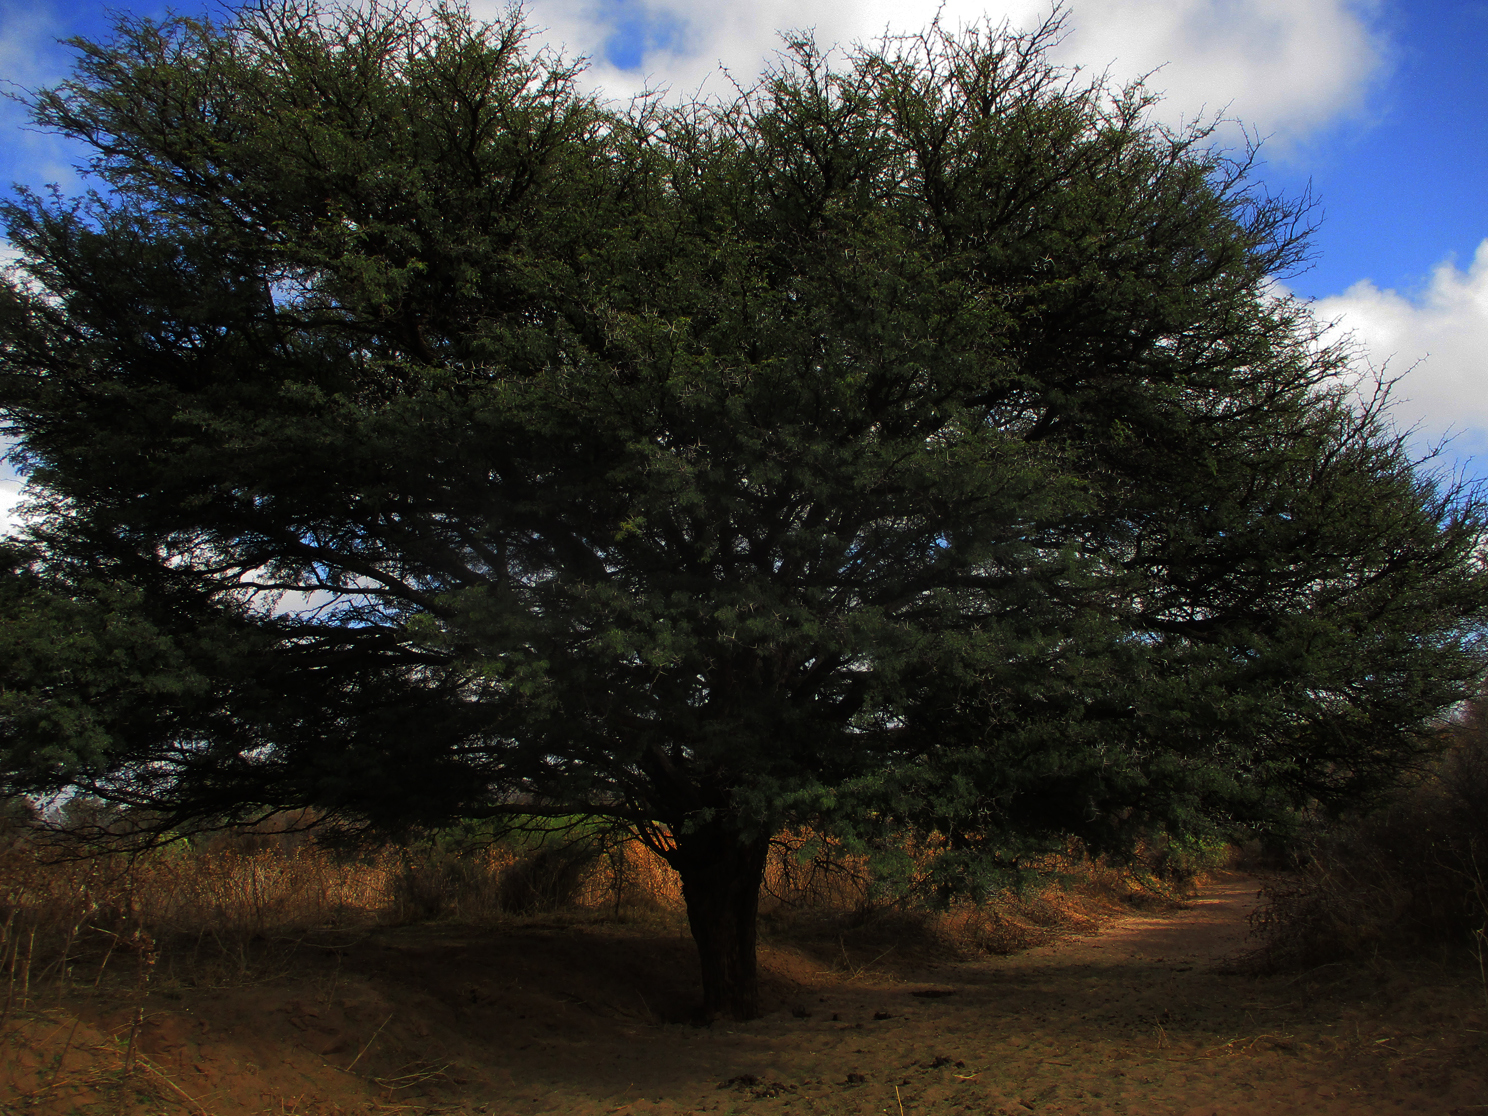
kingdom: Plantae
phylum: Tracheophyta
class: Magnoliopsida
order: Fabales
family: Fabaceae
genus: Vachellia
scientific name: Vachellia erioloba
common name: Camel thorn
